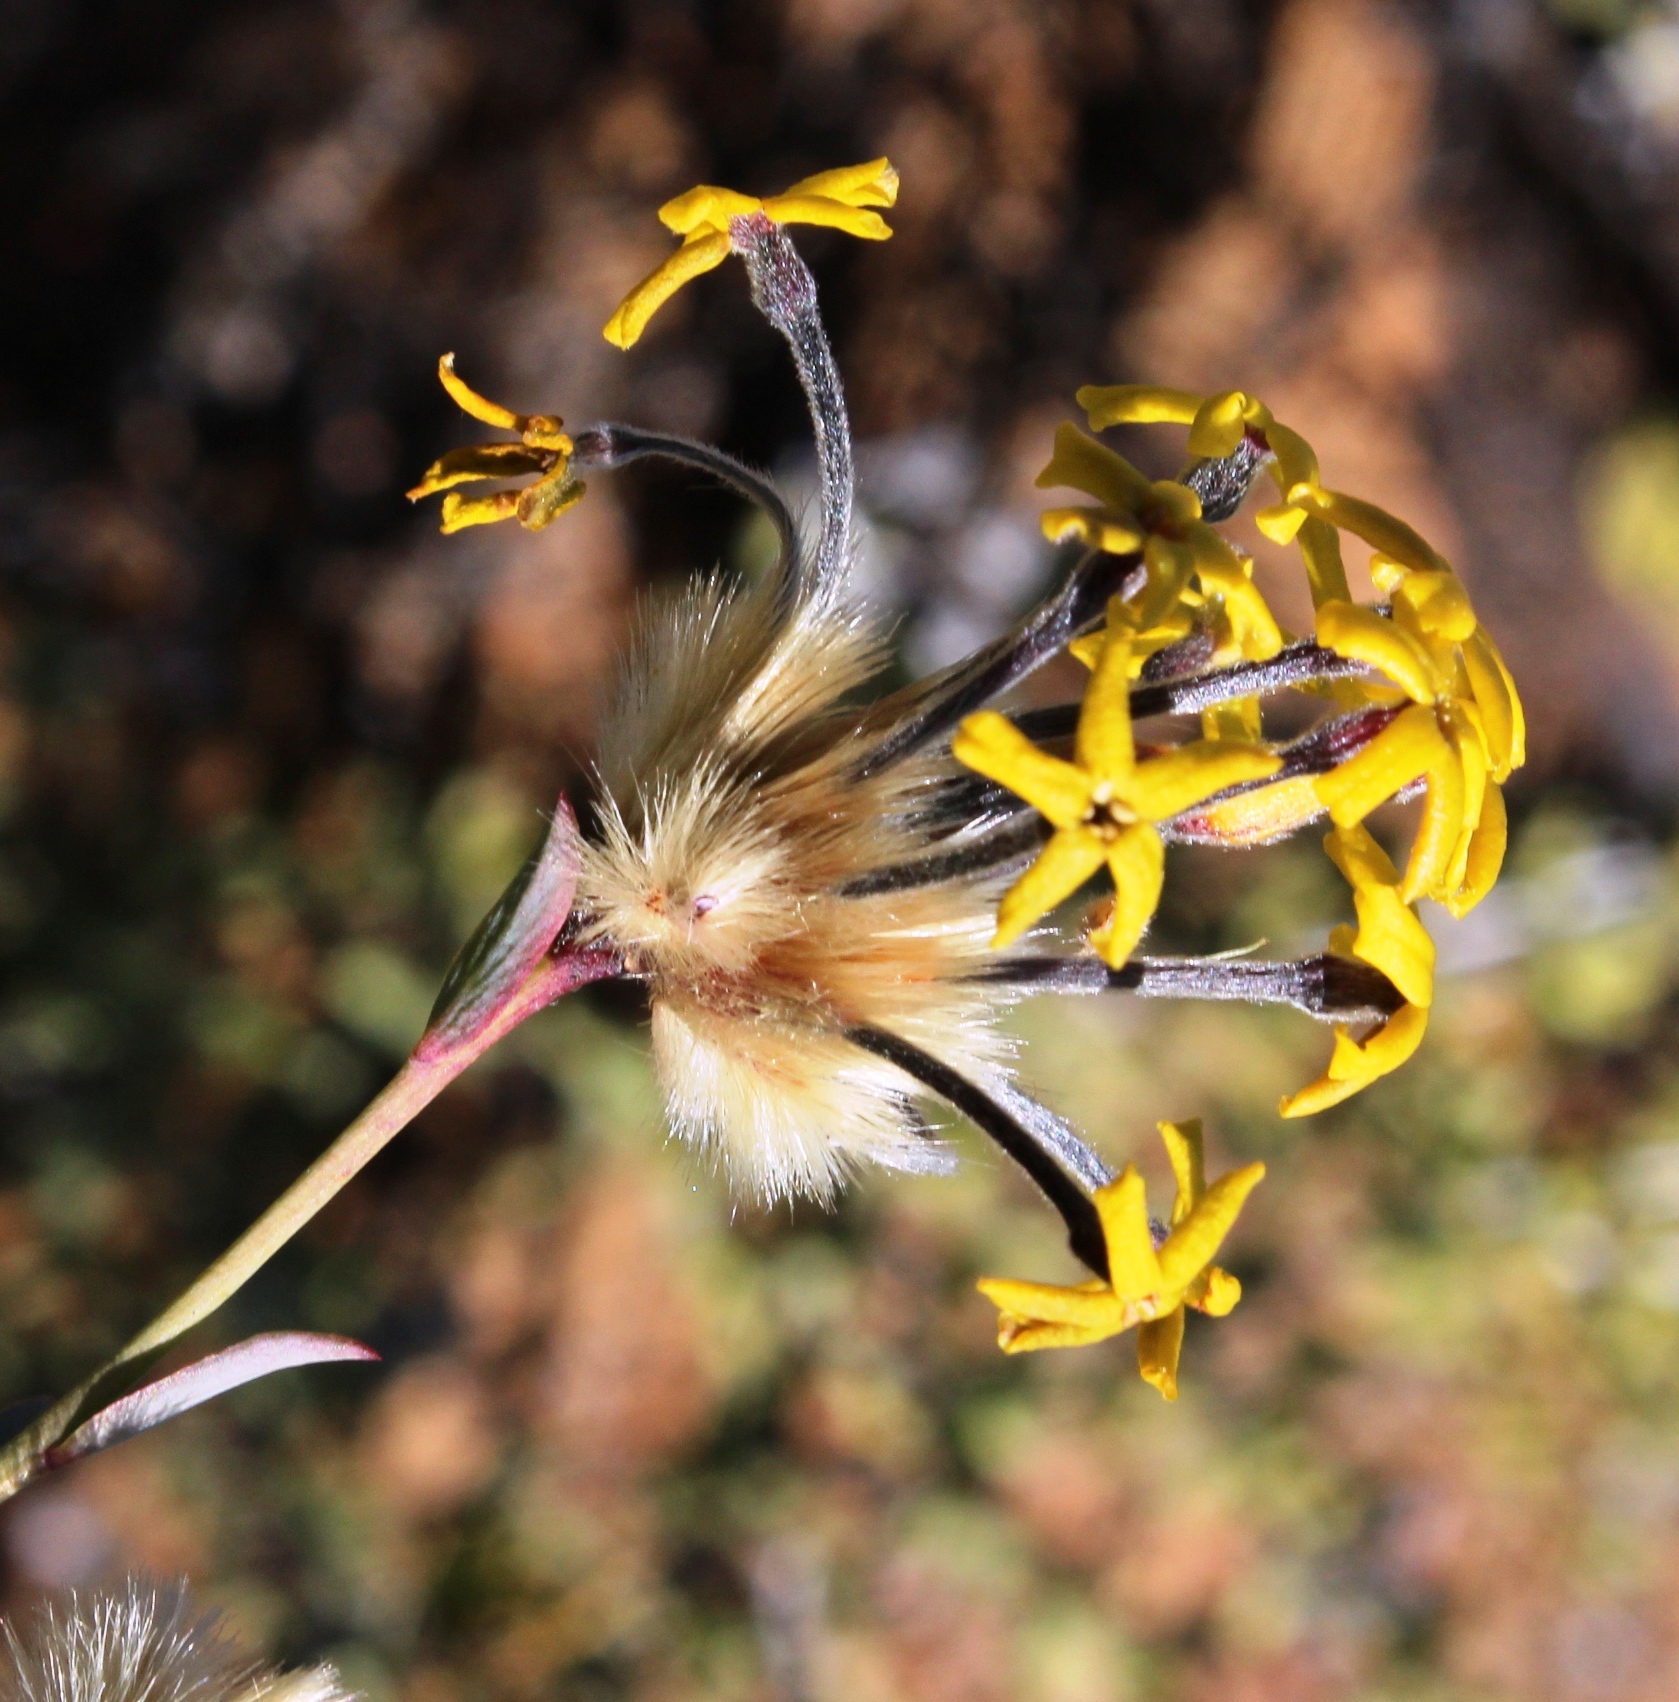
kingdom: Plantae
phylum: Tracheophyta
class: Magnoliopsida
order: Malvales
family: Thymelaeaceae
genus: Gnidia
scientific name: Gnidia rigida
